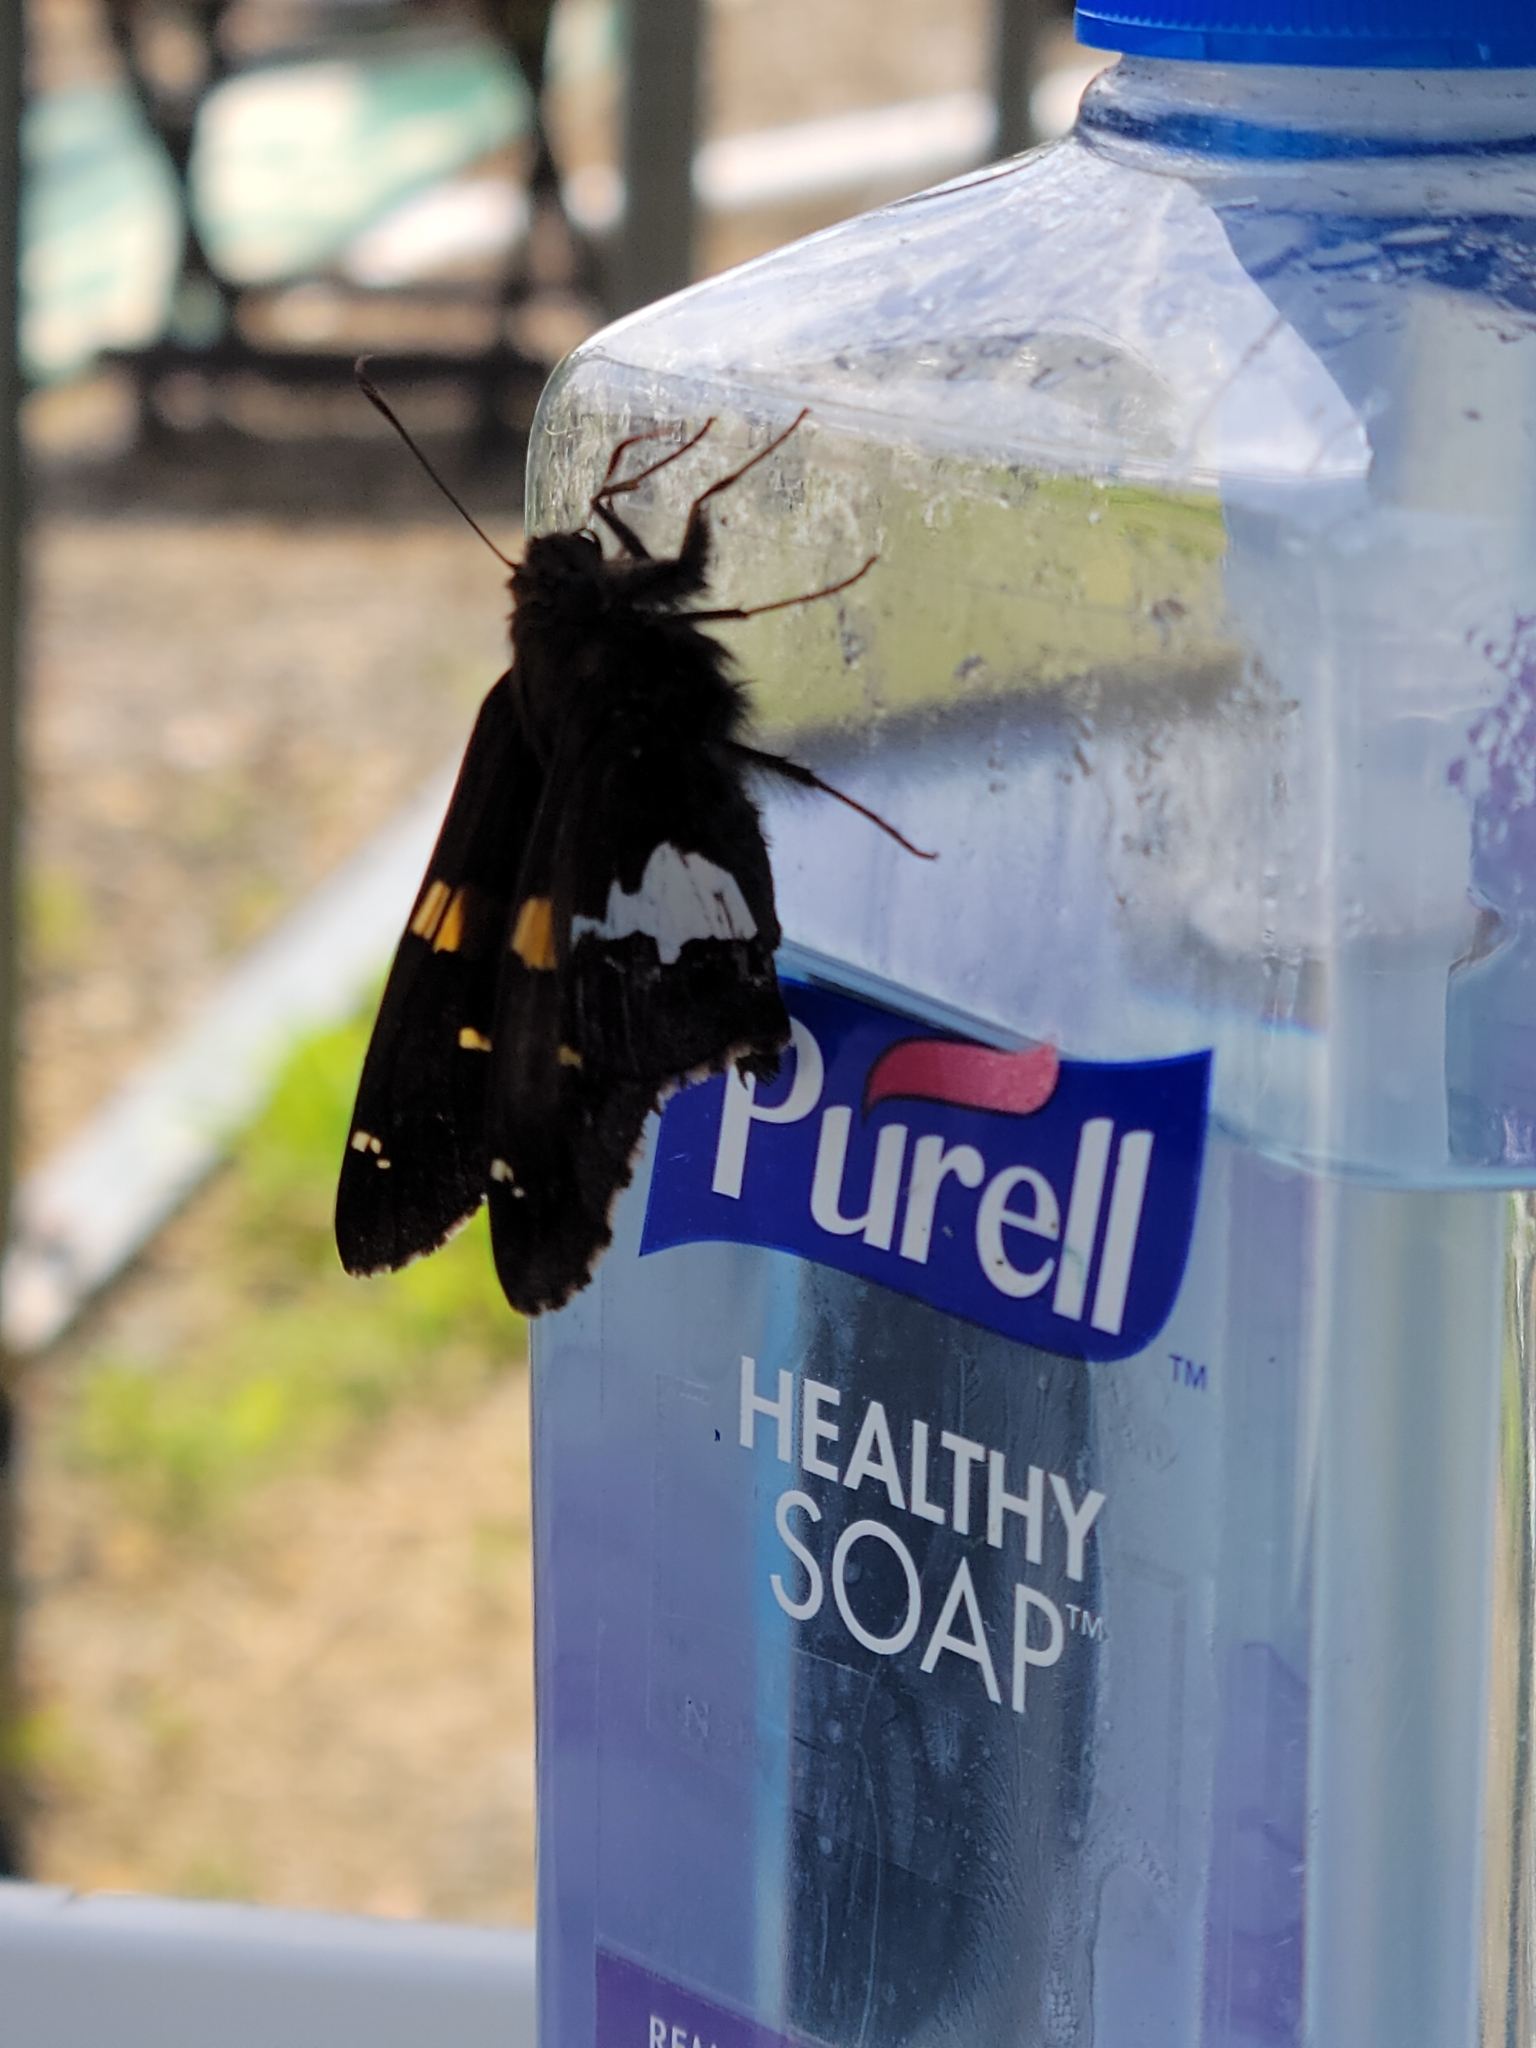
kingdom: Animalia
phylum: Arthropoda
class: Insecta
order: Lepidoptera
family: Hesperiidae
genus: Epargyreus
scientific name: Epargyreus clarus
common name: Silver-spotted skipper
